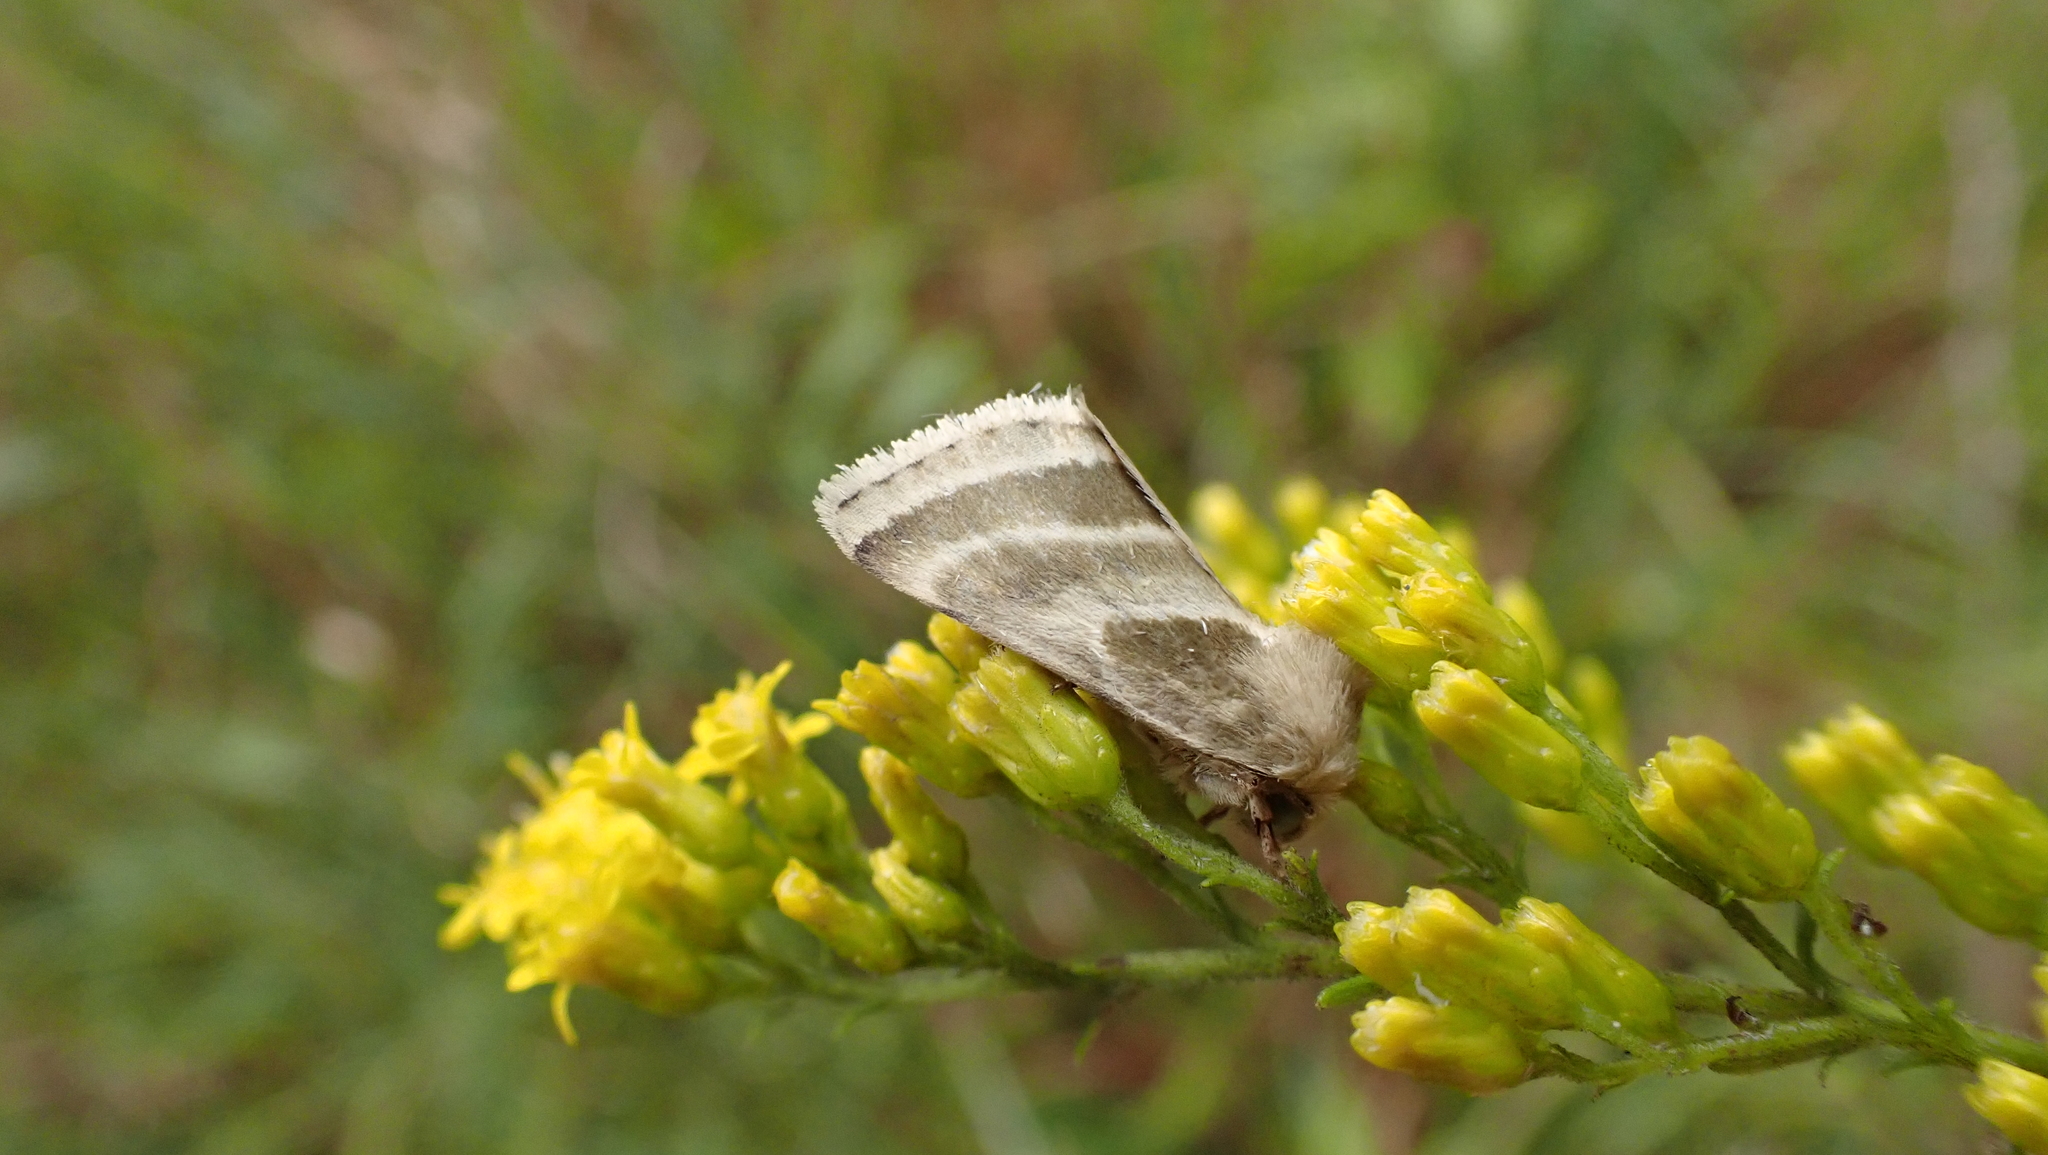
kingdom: Animalia
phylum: Arthropoda
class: Insecta
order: Lepidoptera
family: Noctuidae
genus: Schinia
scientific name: Schinia trifascia
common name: Three-lined flower moth
